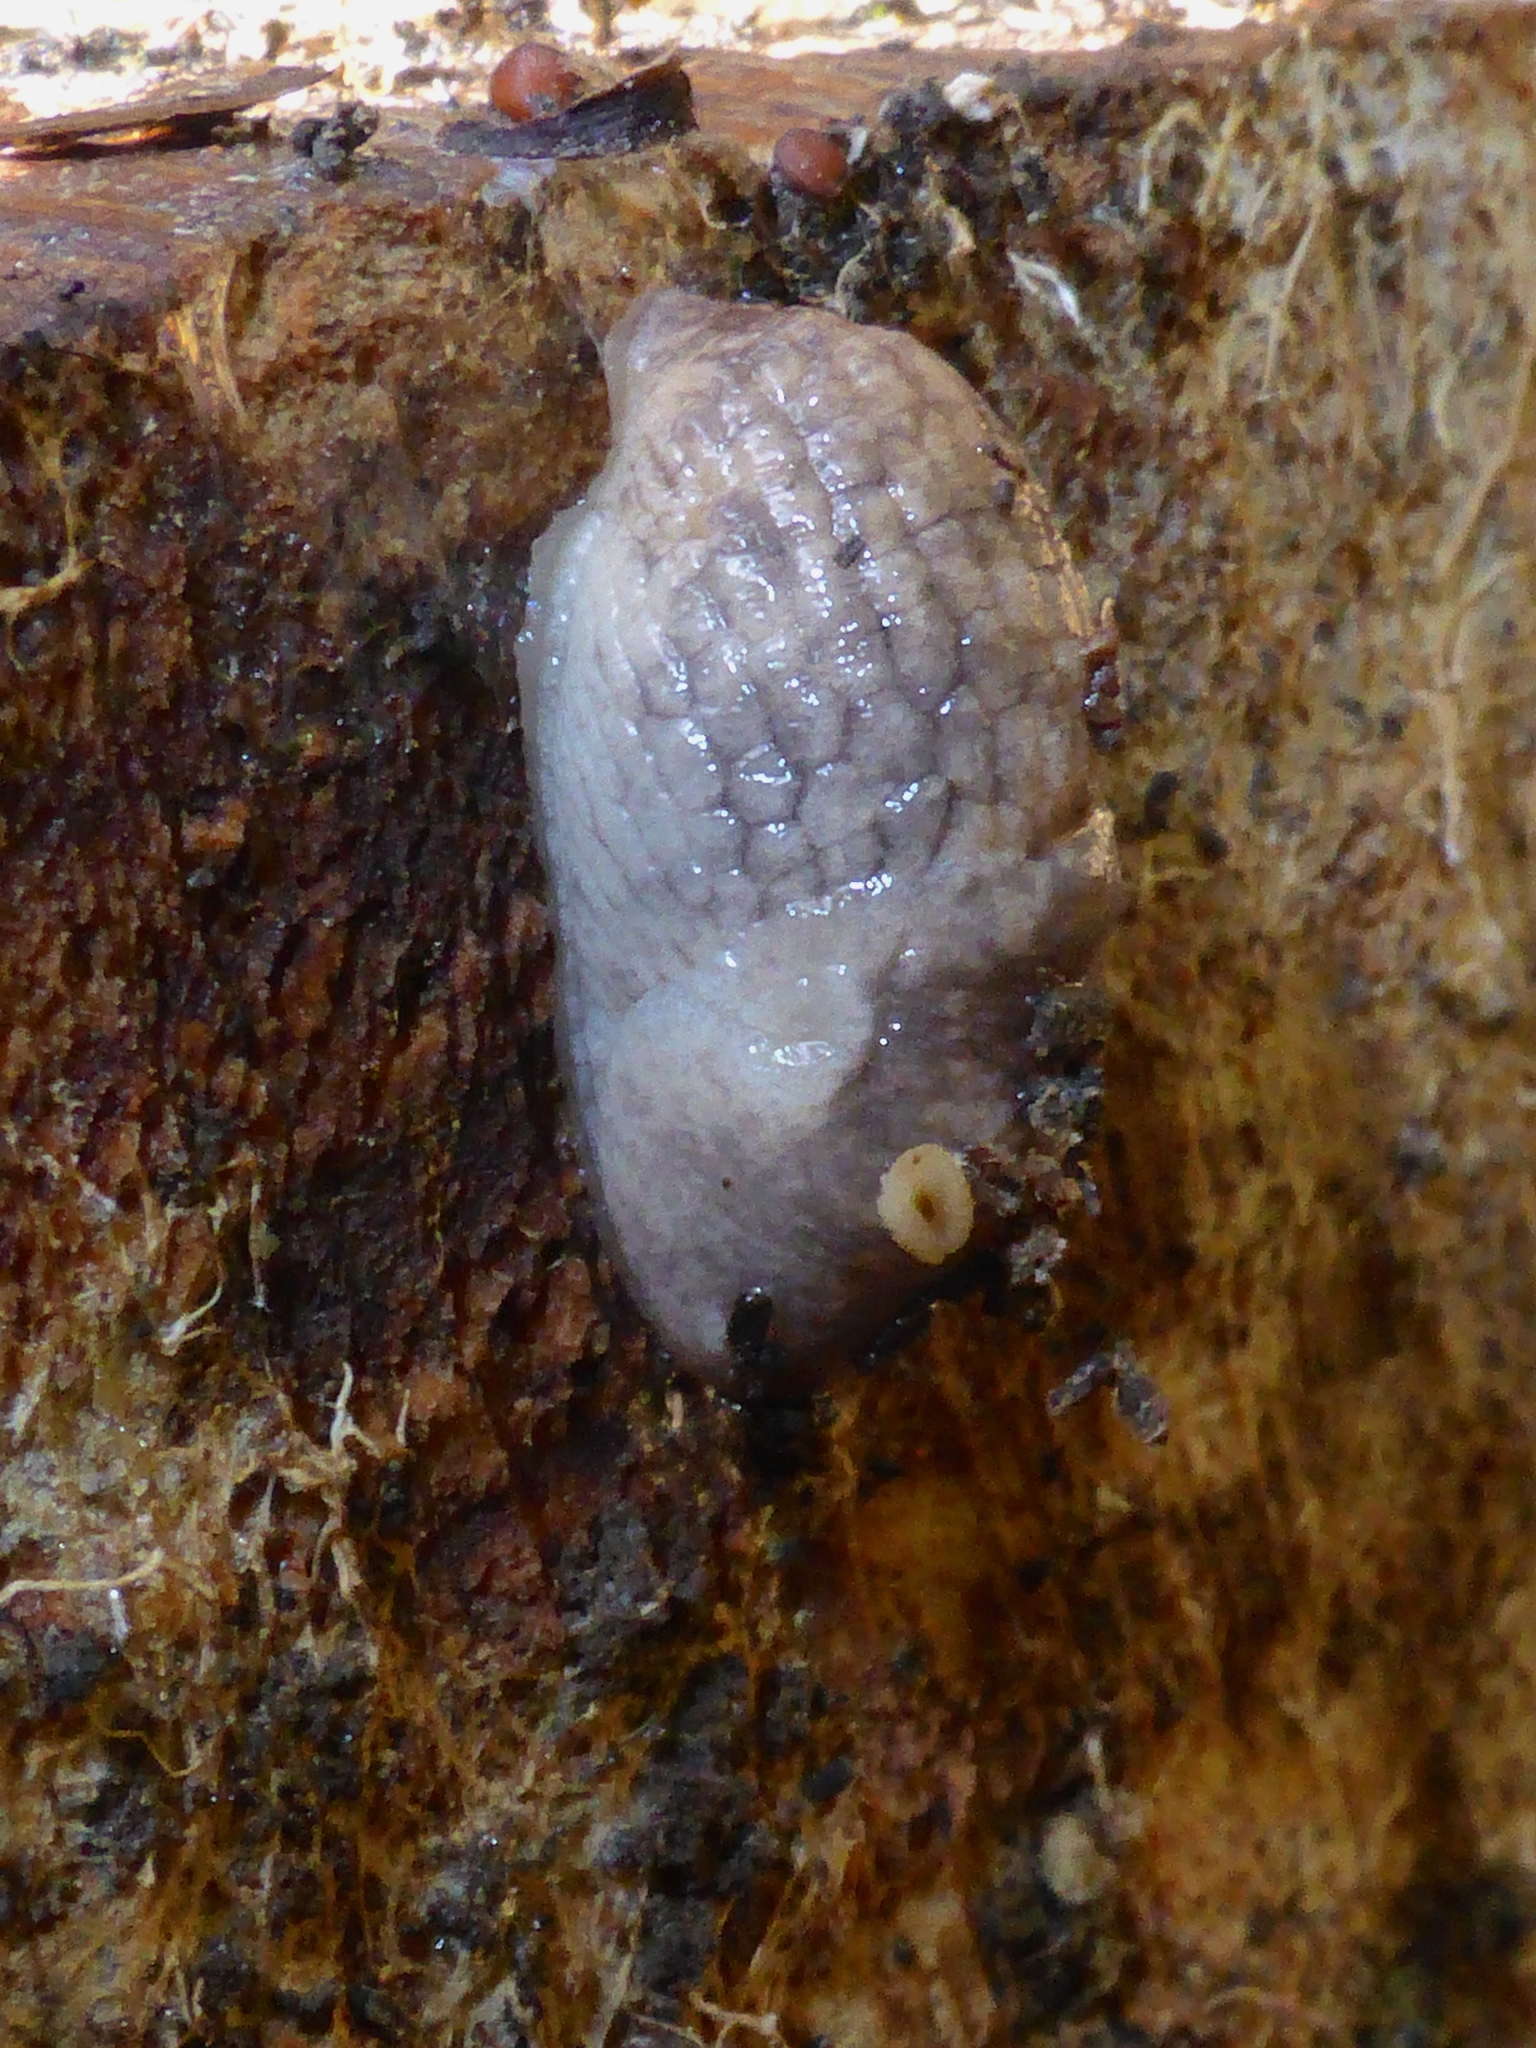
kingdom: Animalia
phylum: Mollusca
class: Gastropoda
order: Stylommatophora
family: Agriolimacidae
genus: Deroceras
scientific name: Deroceras reticulatum
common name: Gray field slug
